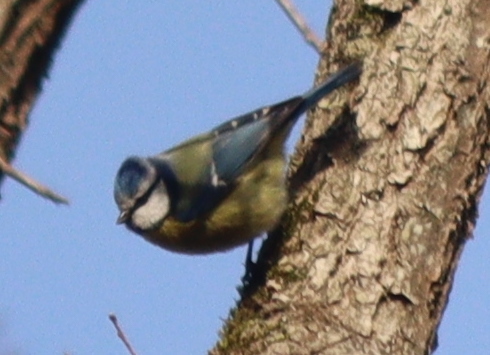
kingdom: Animalia
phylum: Chordata
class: Aves
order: Passeriformes
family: Paridae
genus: Cyanistes
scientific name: Cyanistes caeruleus
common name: Eurasian blue tit
